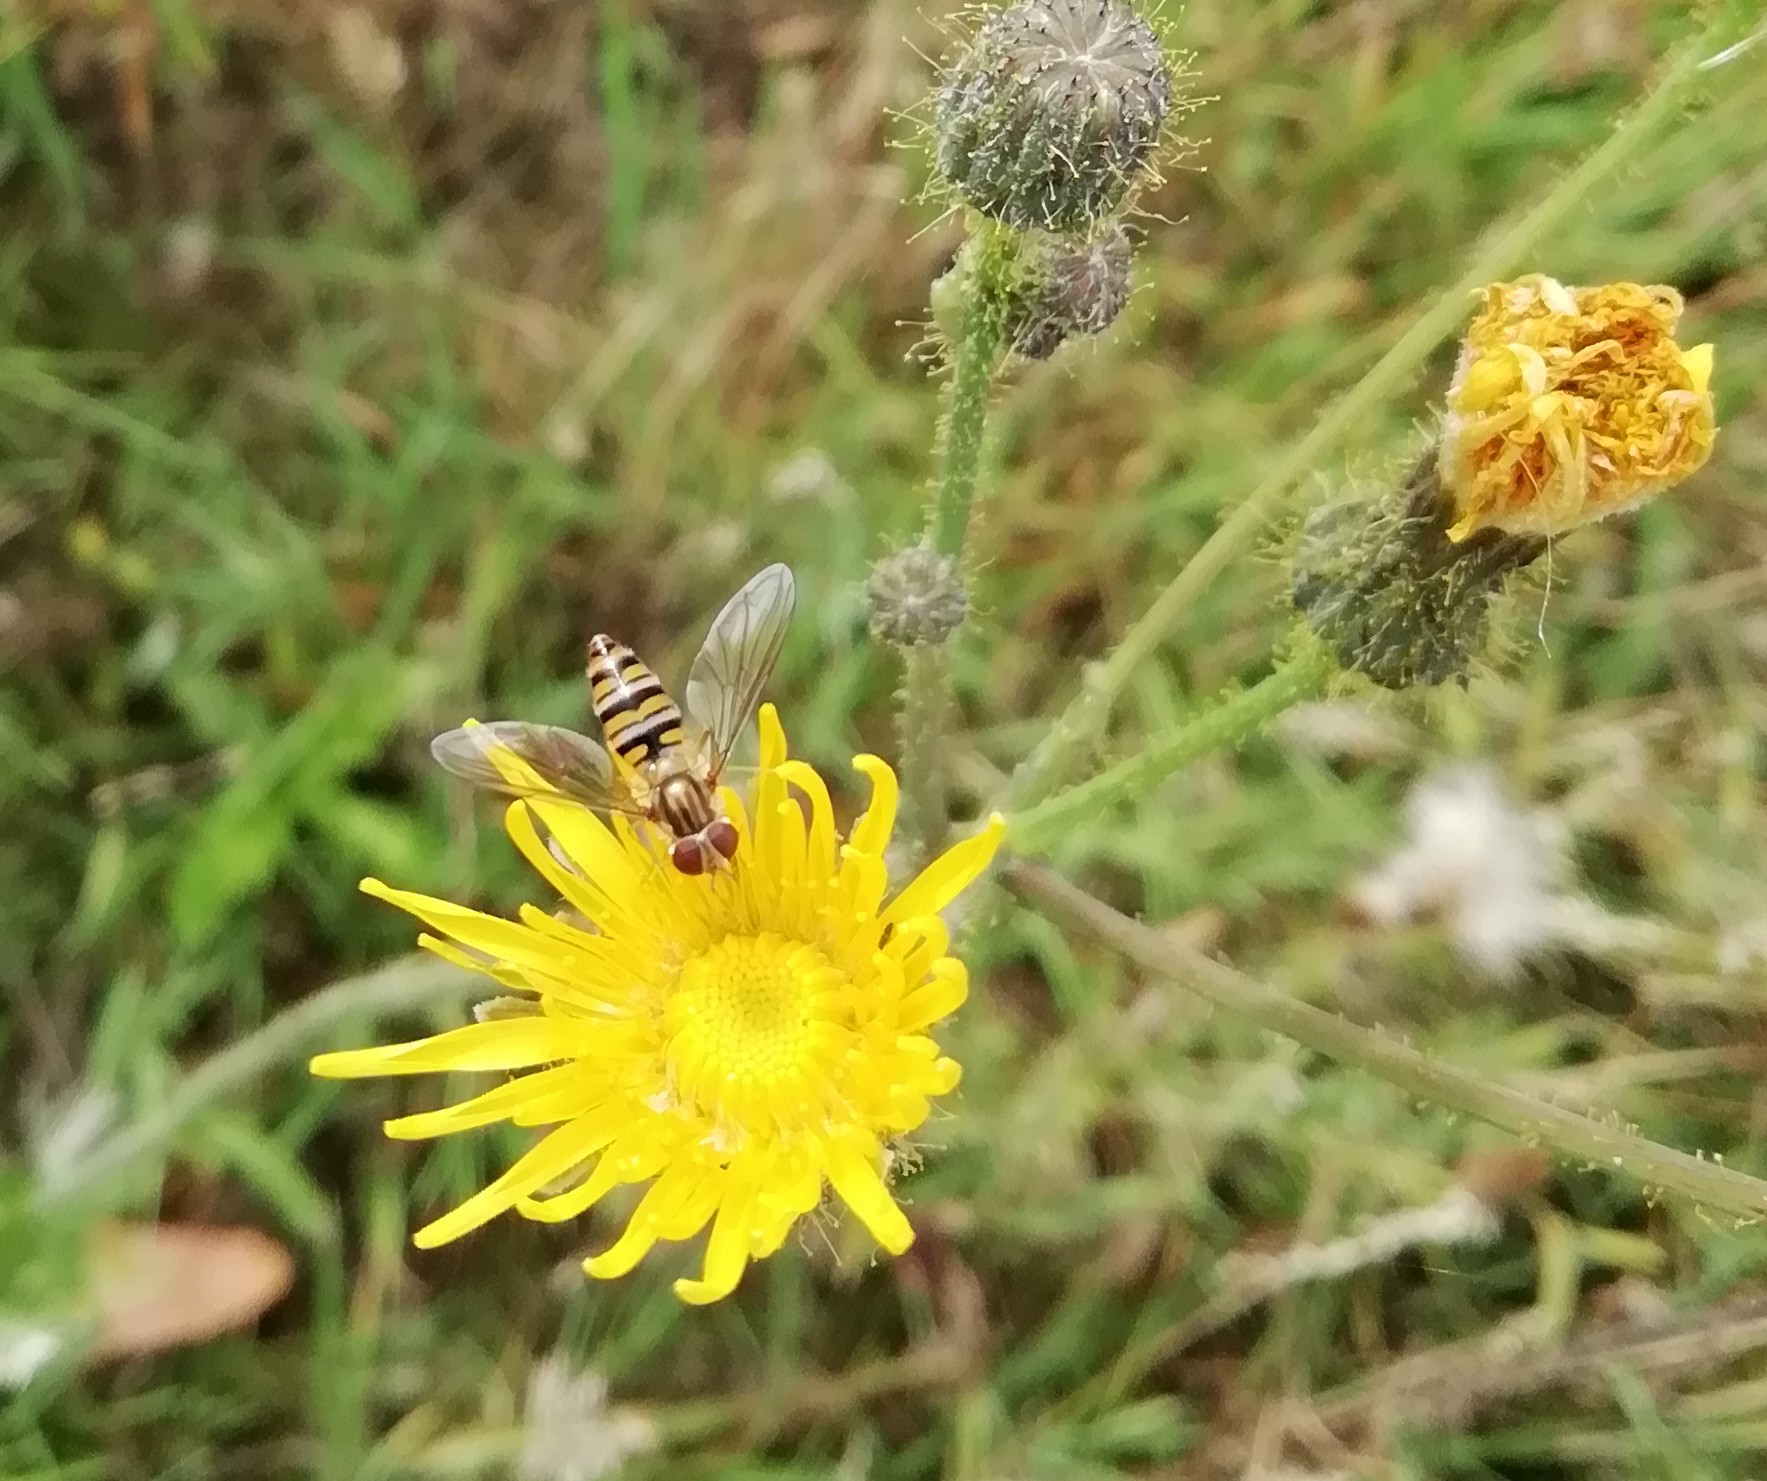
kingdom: Animalia
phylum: Arthropoda
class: Insecta
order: Diptera
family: Syrphidae
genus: Episyrphus
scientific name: Episyrphus balteatus
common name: Marmalade hoverfly
